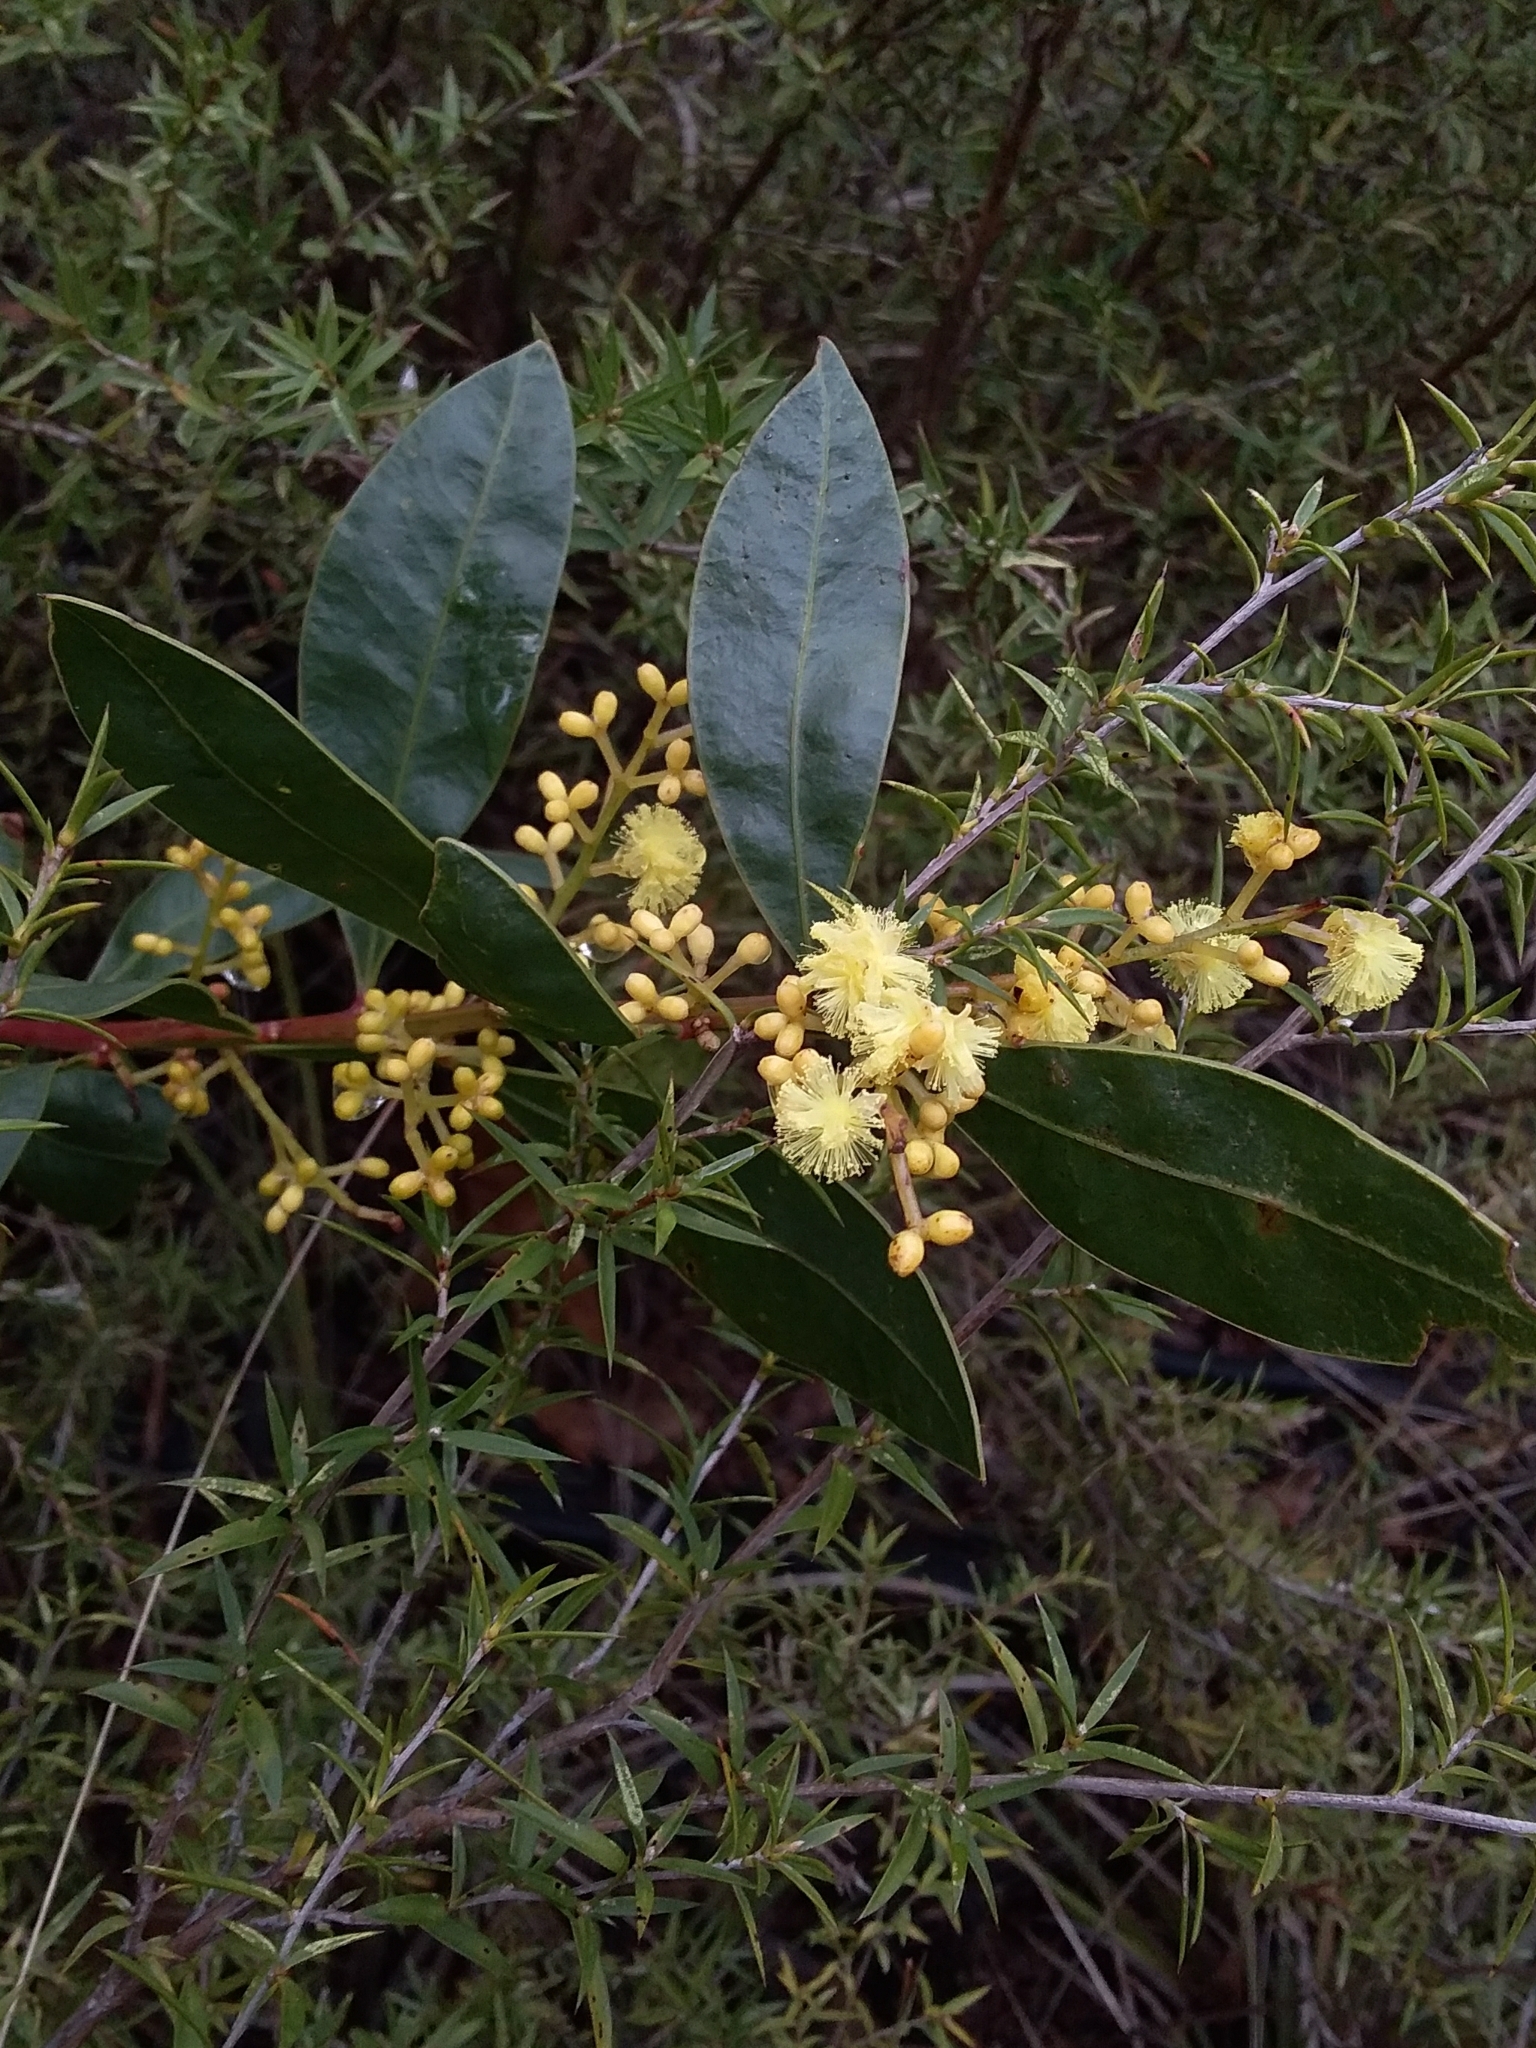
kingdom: Plantae
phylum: Tracheophyta
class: Magnoliopsida
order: Fabales
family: Fabaceae
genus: Acacia
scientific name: Acacia myrtifolia
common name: Myrtle wattle
